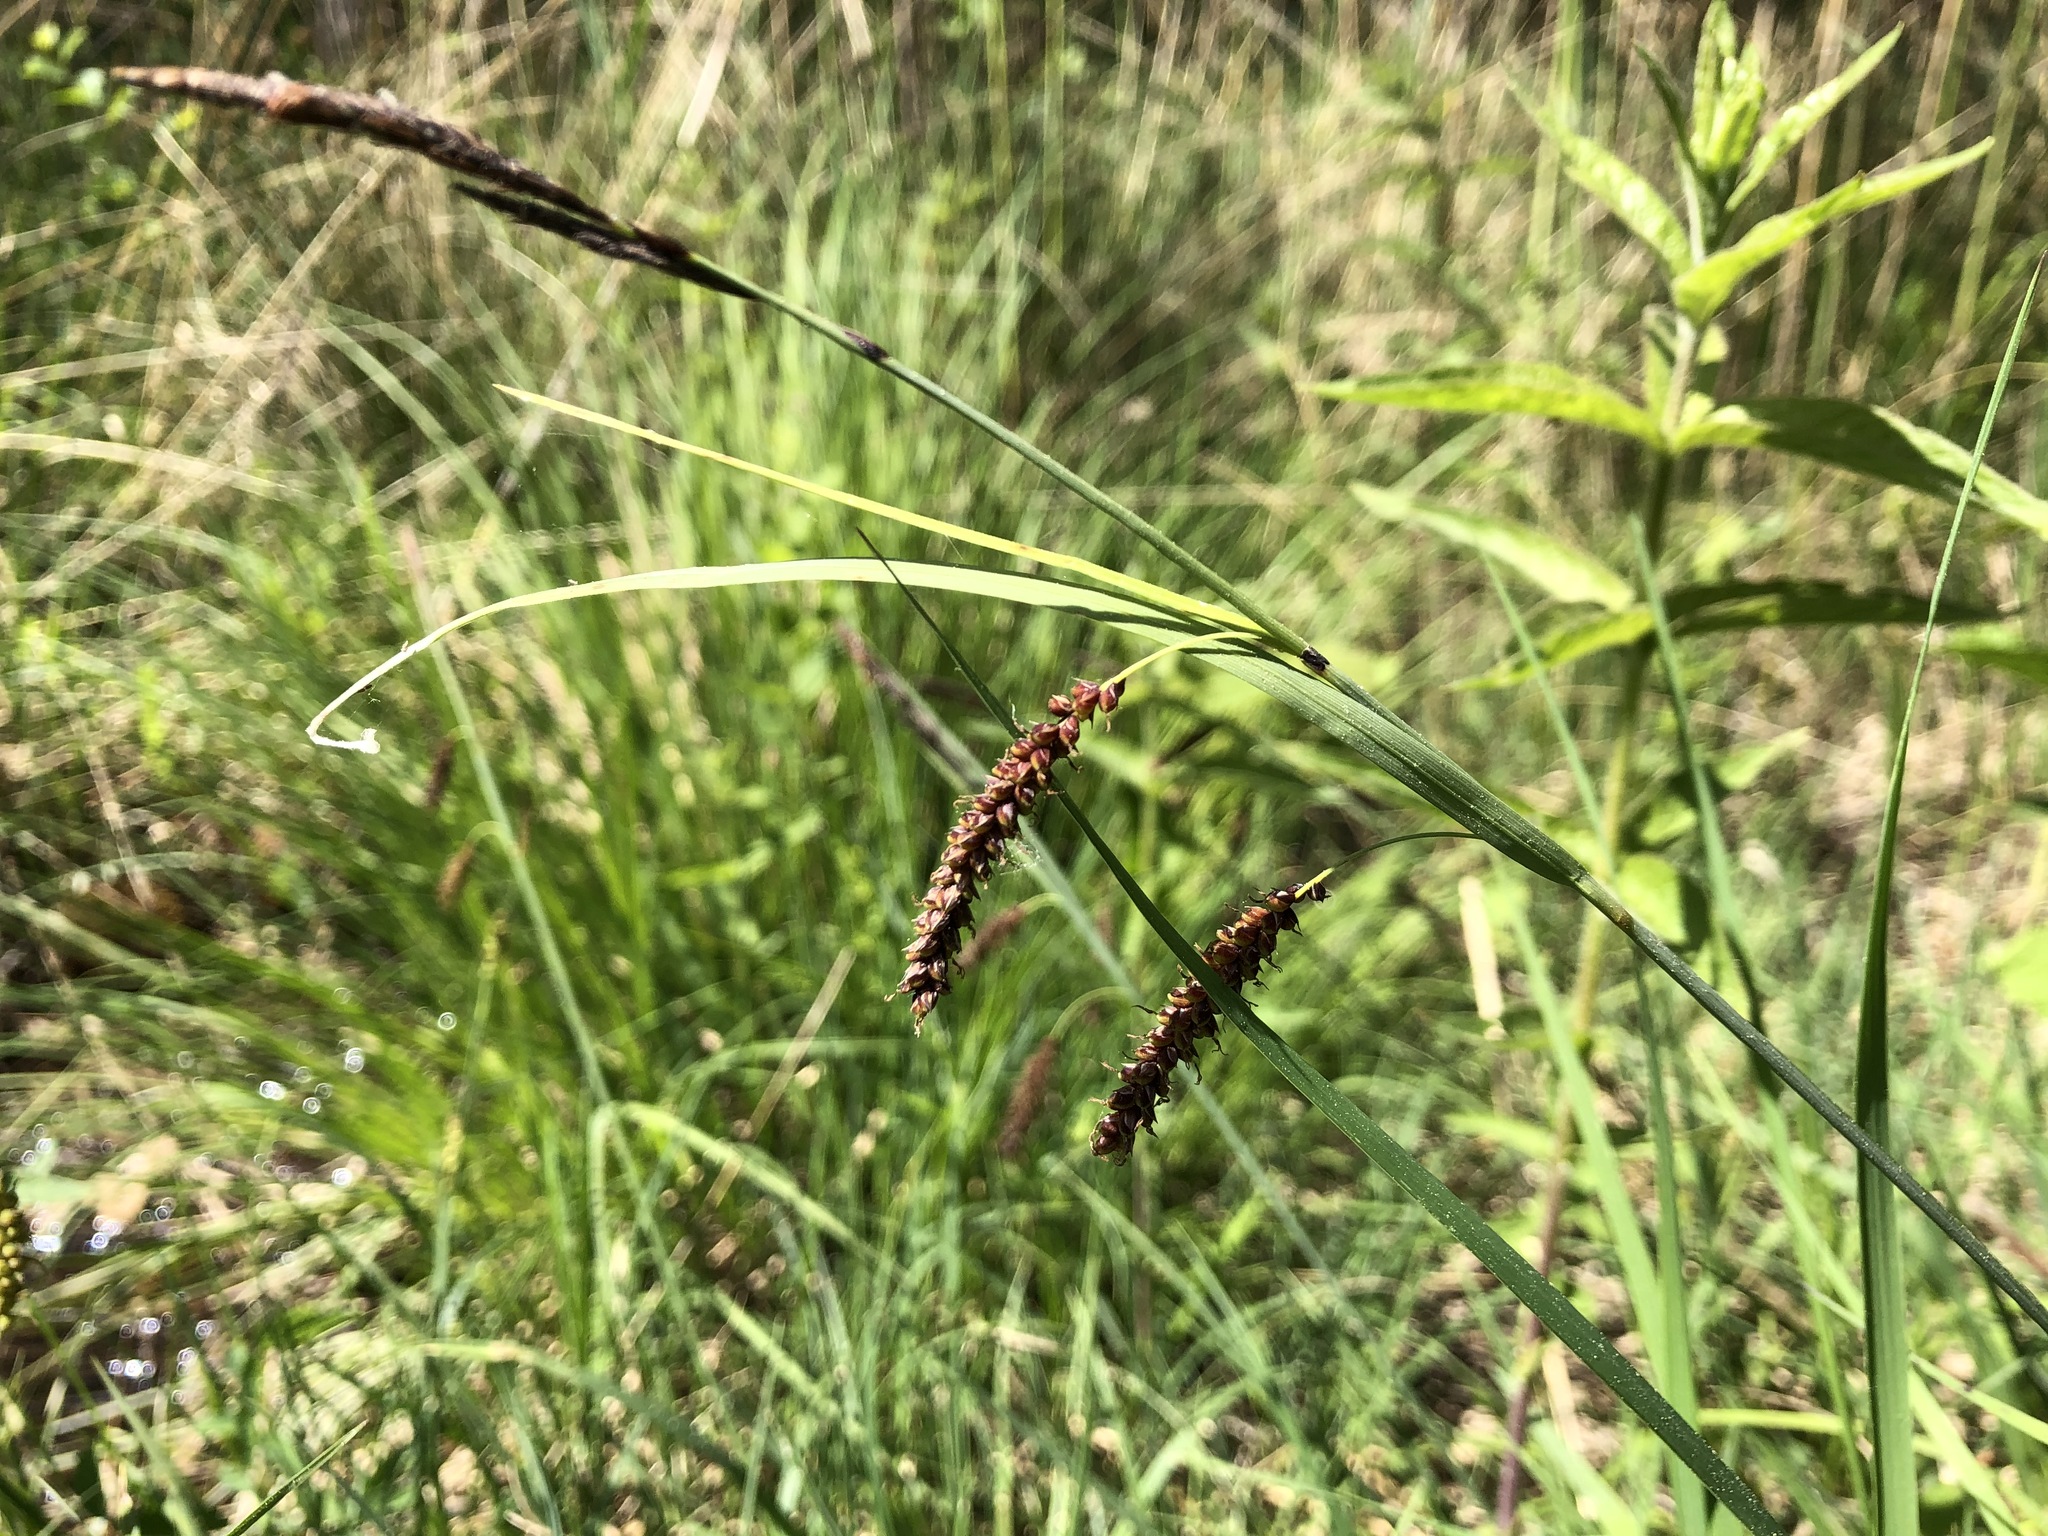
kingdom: Plantae
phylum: Tracheophyta
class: Liliopsida
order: Poales
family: Cyperaceae
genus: Carex
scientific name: Carex flacca
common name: Glaucous sedge
